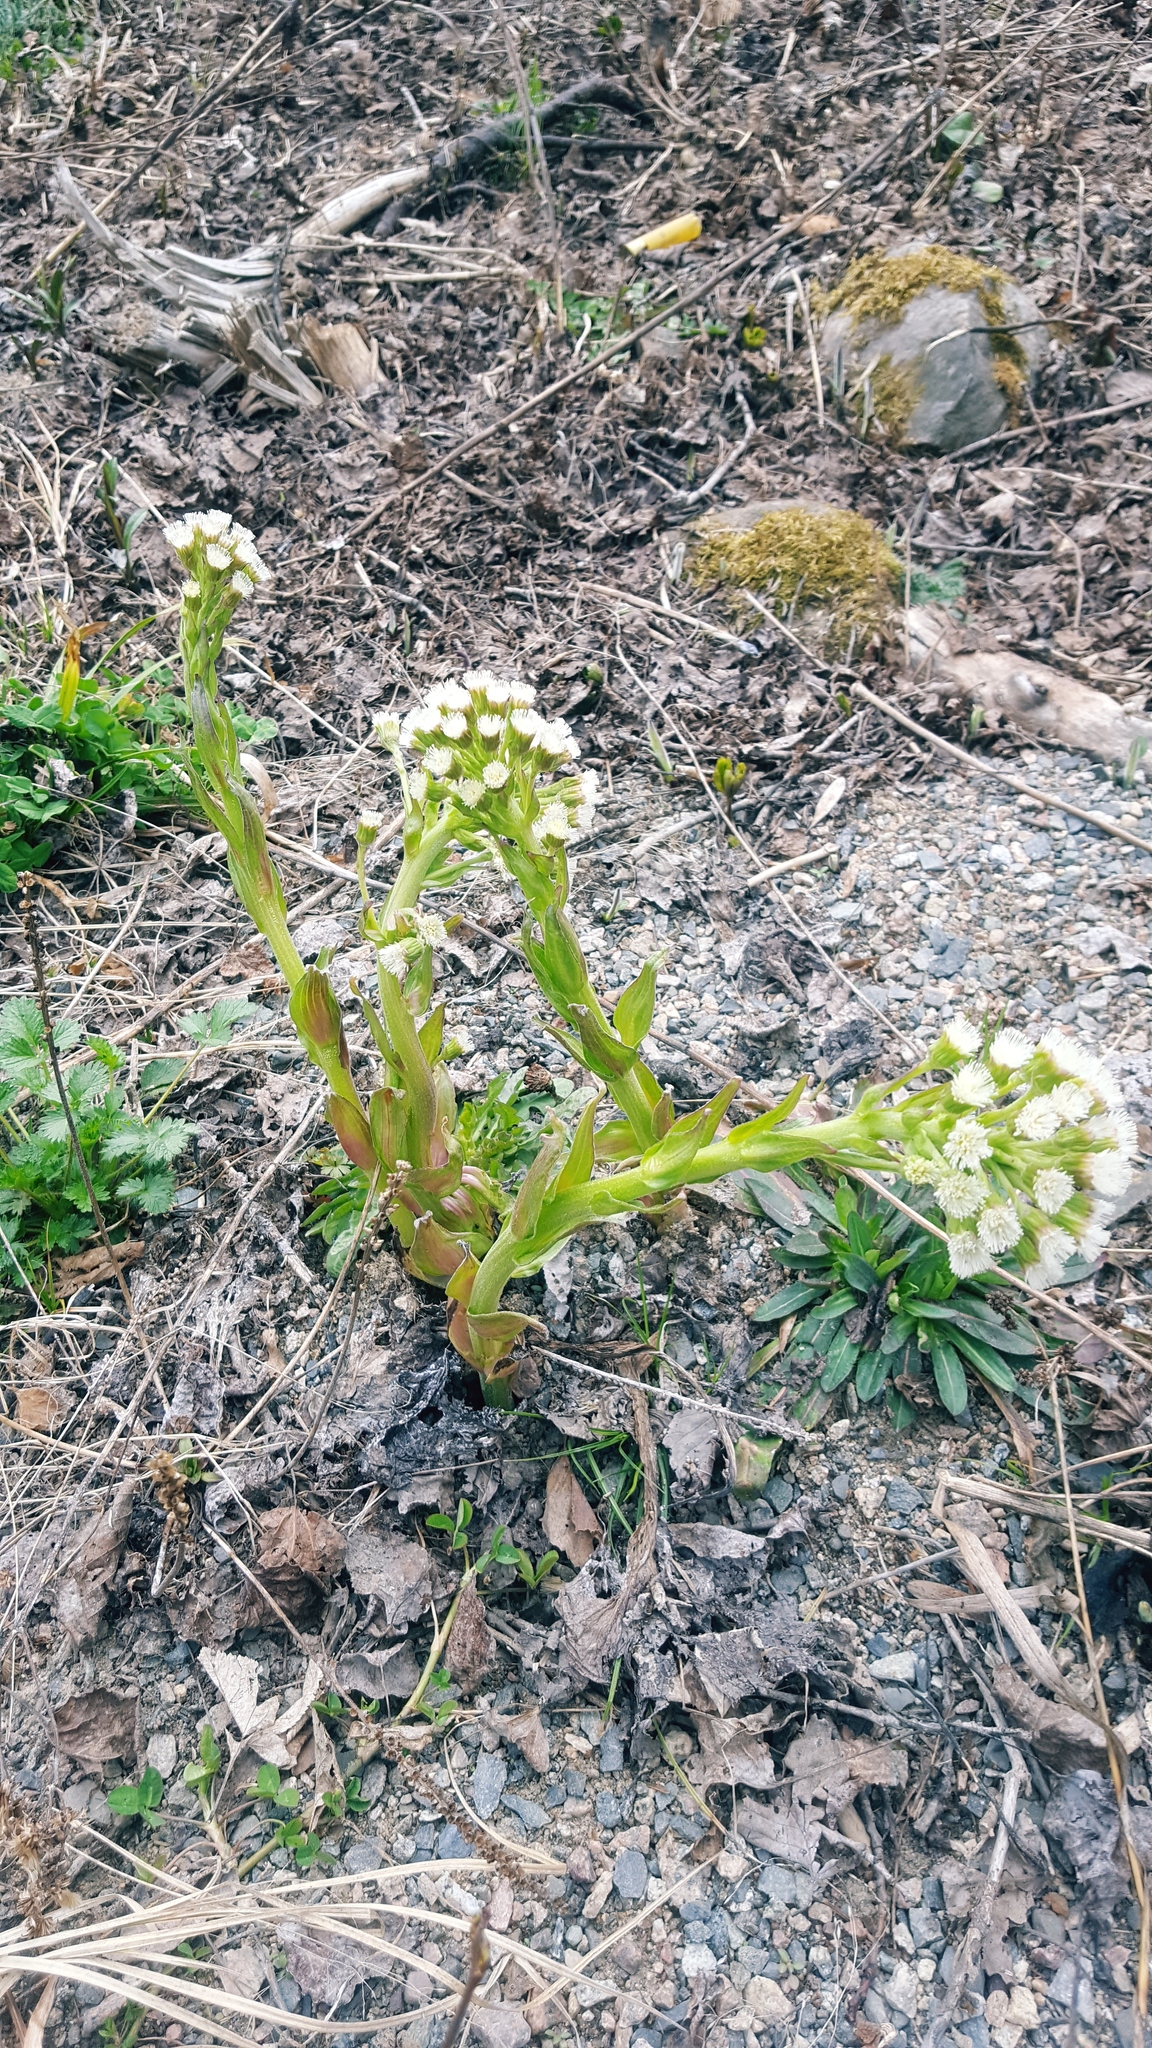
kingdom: Plantae
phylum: Tracheophyta
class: Magnoliopsida
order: Asterales
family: Asteraceae
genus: Petasites
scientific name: Petasites frigidus
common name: Arctic butterbur
